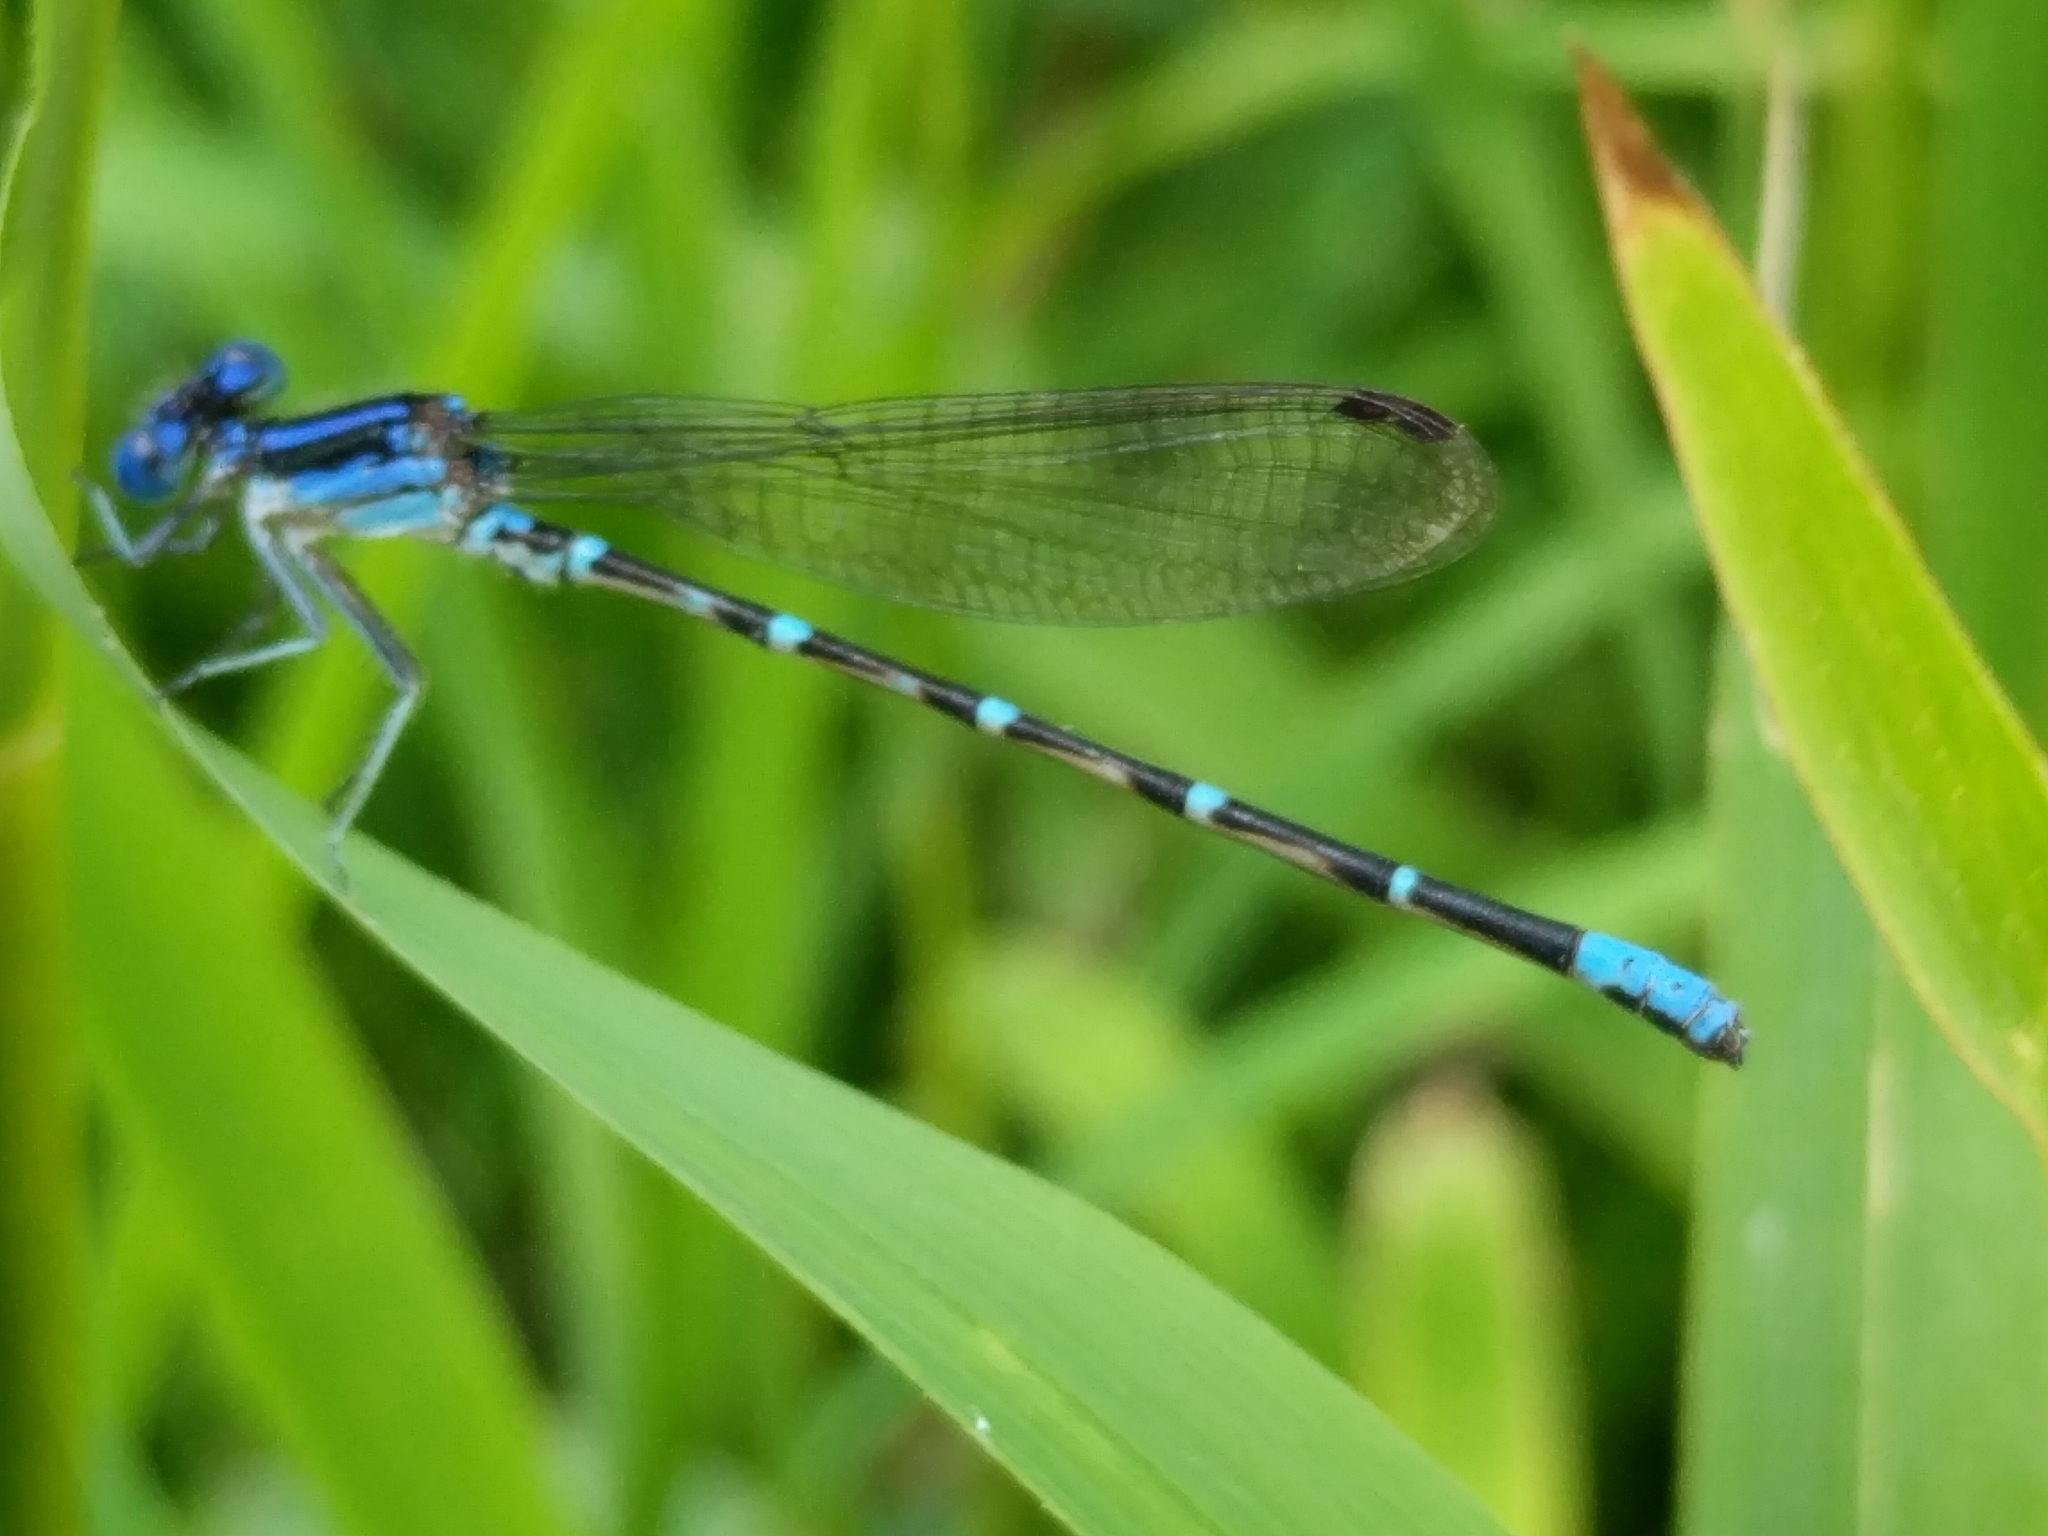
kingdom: Animalia
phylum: Arthropoda
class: Insecta
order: Odonata
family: Coenagrionidae
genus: Argia
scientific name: Argia sedula
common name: Blue-ringed dancer
